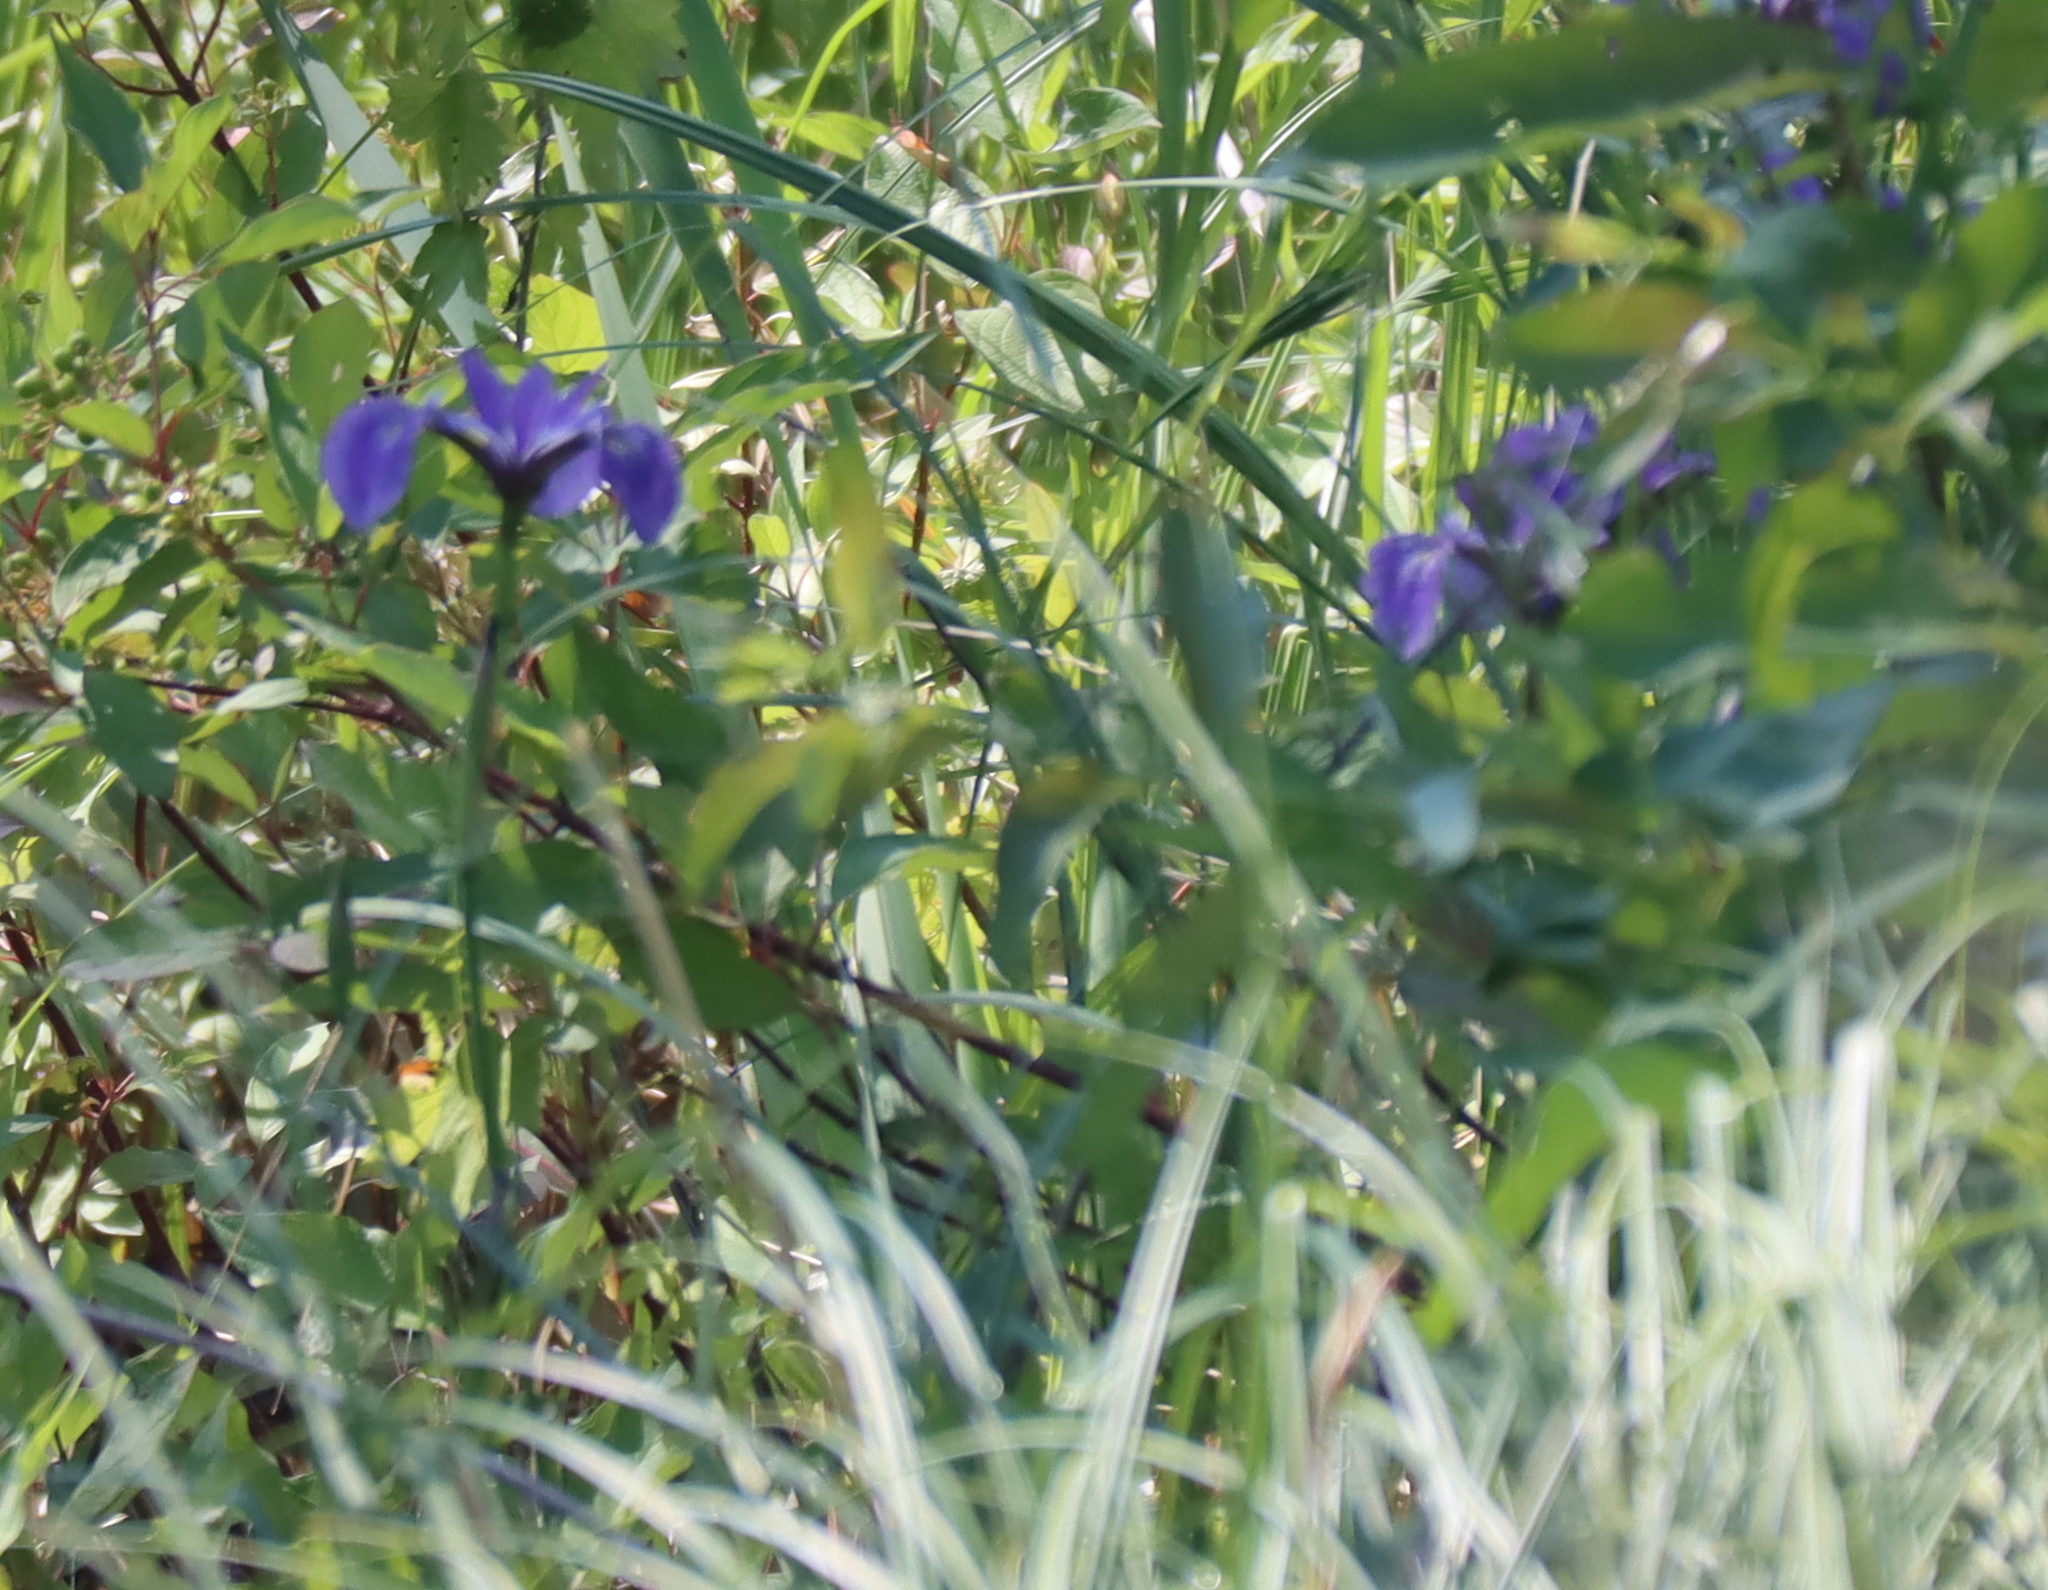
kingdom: Plantae
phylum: Tracheophyta
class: Liliopsida
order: Asparagales
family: Iridaceae
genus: Iris
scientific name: Iris versicolor
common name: Purple iris
